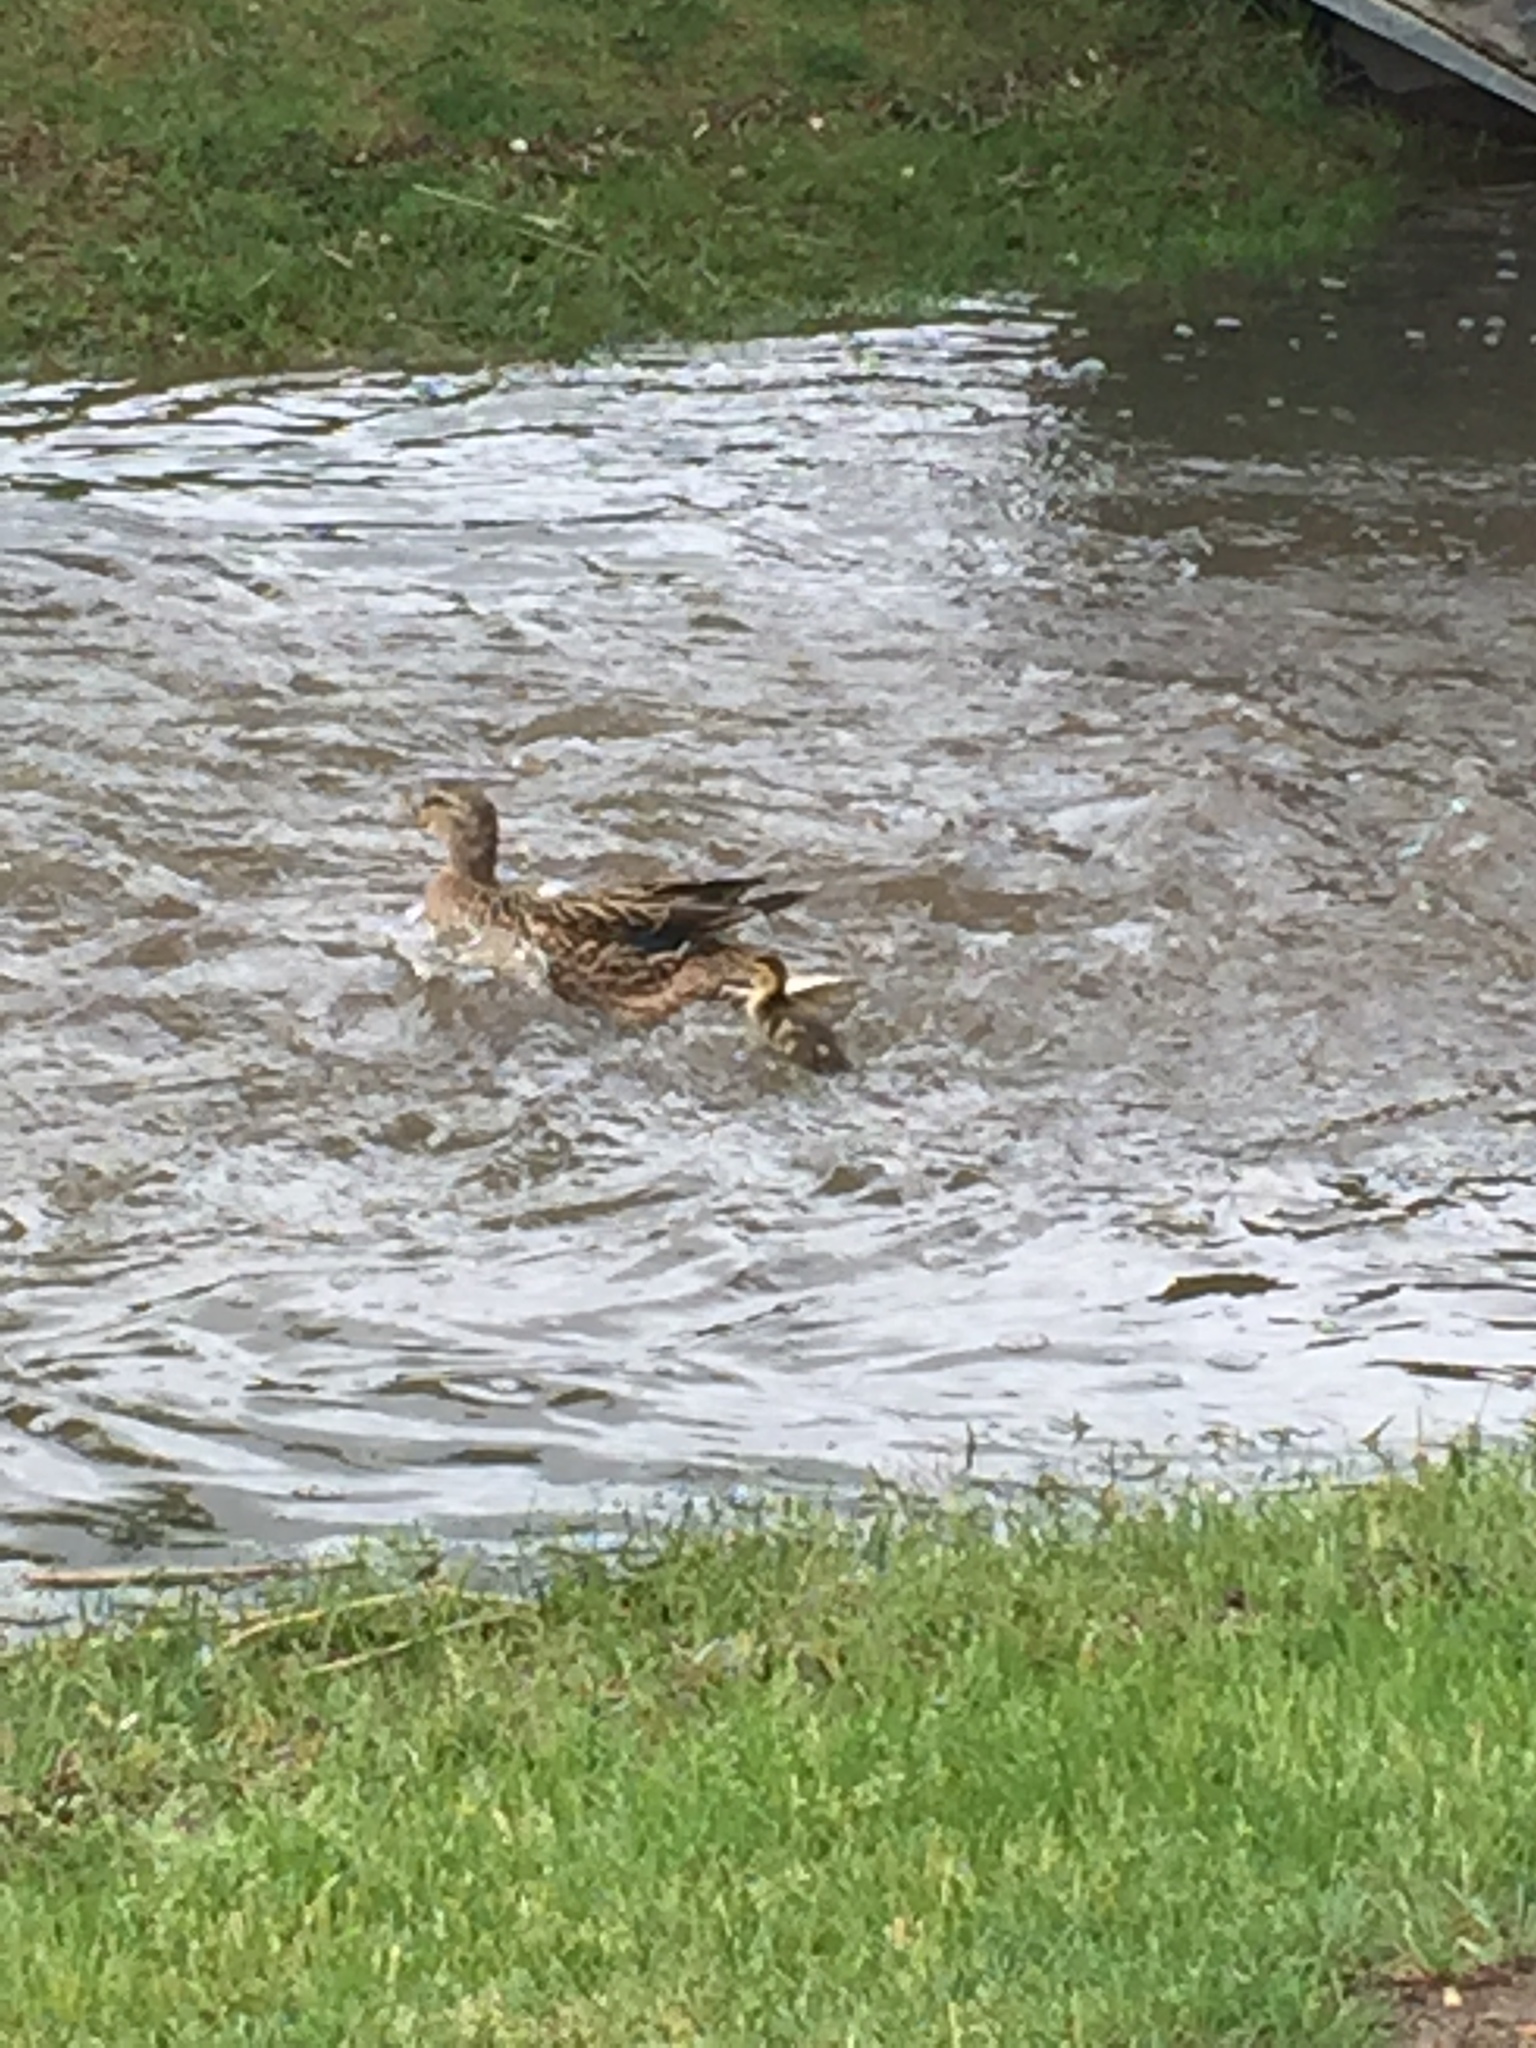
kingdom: Animalia
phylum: Chordata
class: Aves
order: Anseriformes
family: Anatidae
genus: Anas
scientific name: Anas platyrhynchos
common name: Mallard
